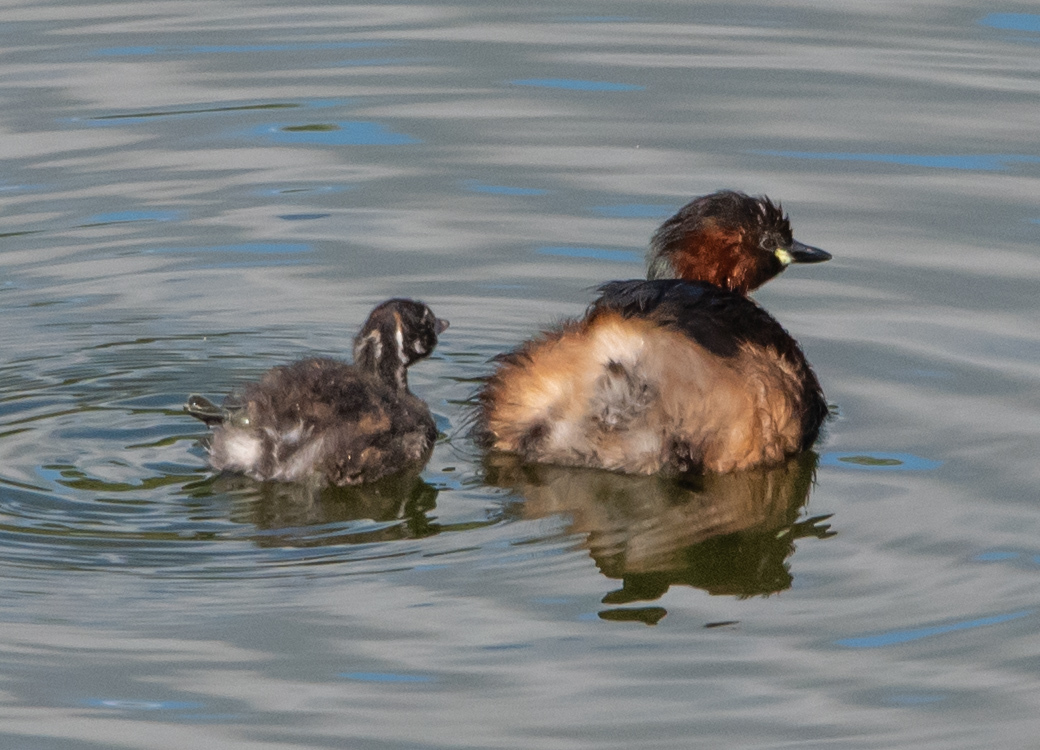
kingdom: Animalia
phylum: Chordata
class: Aves
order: Podicipediformes
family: Podicipedidae
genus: Tachybaptus
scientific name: Tachybaptus ruficollis
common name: Little grebe
